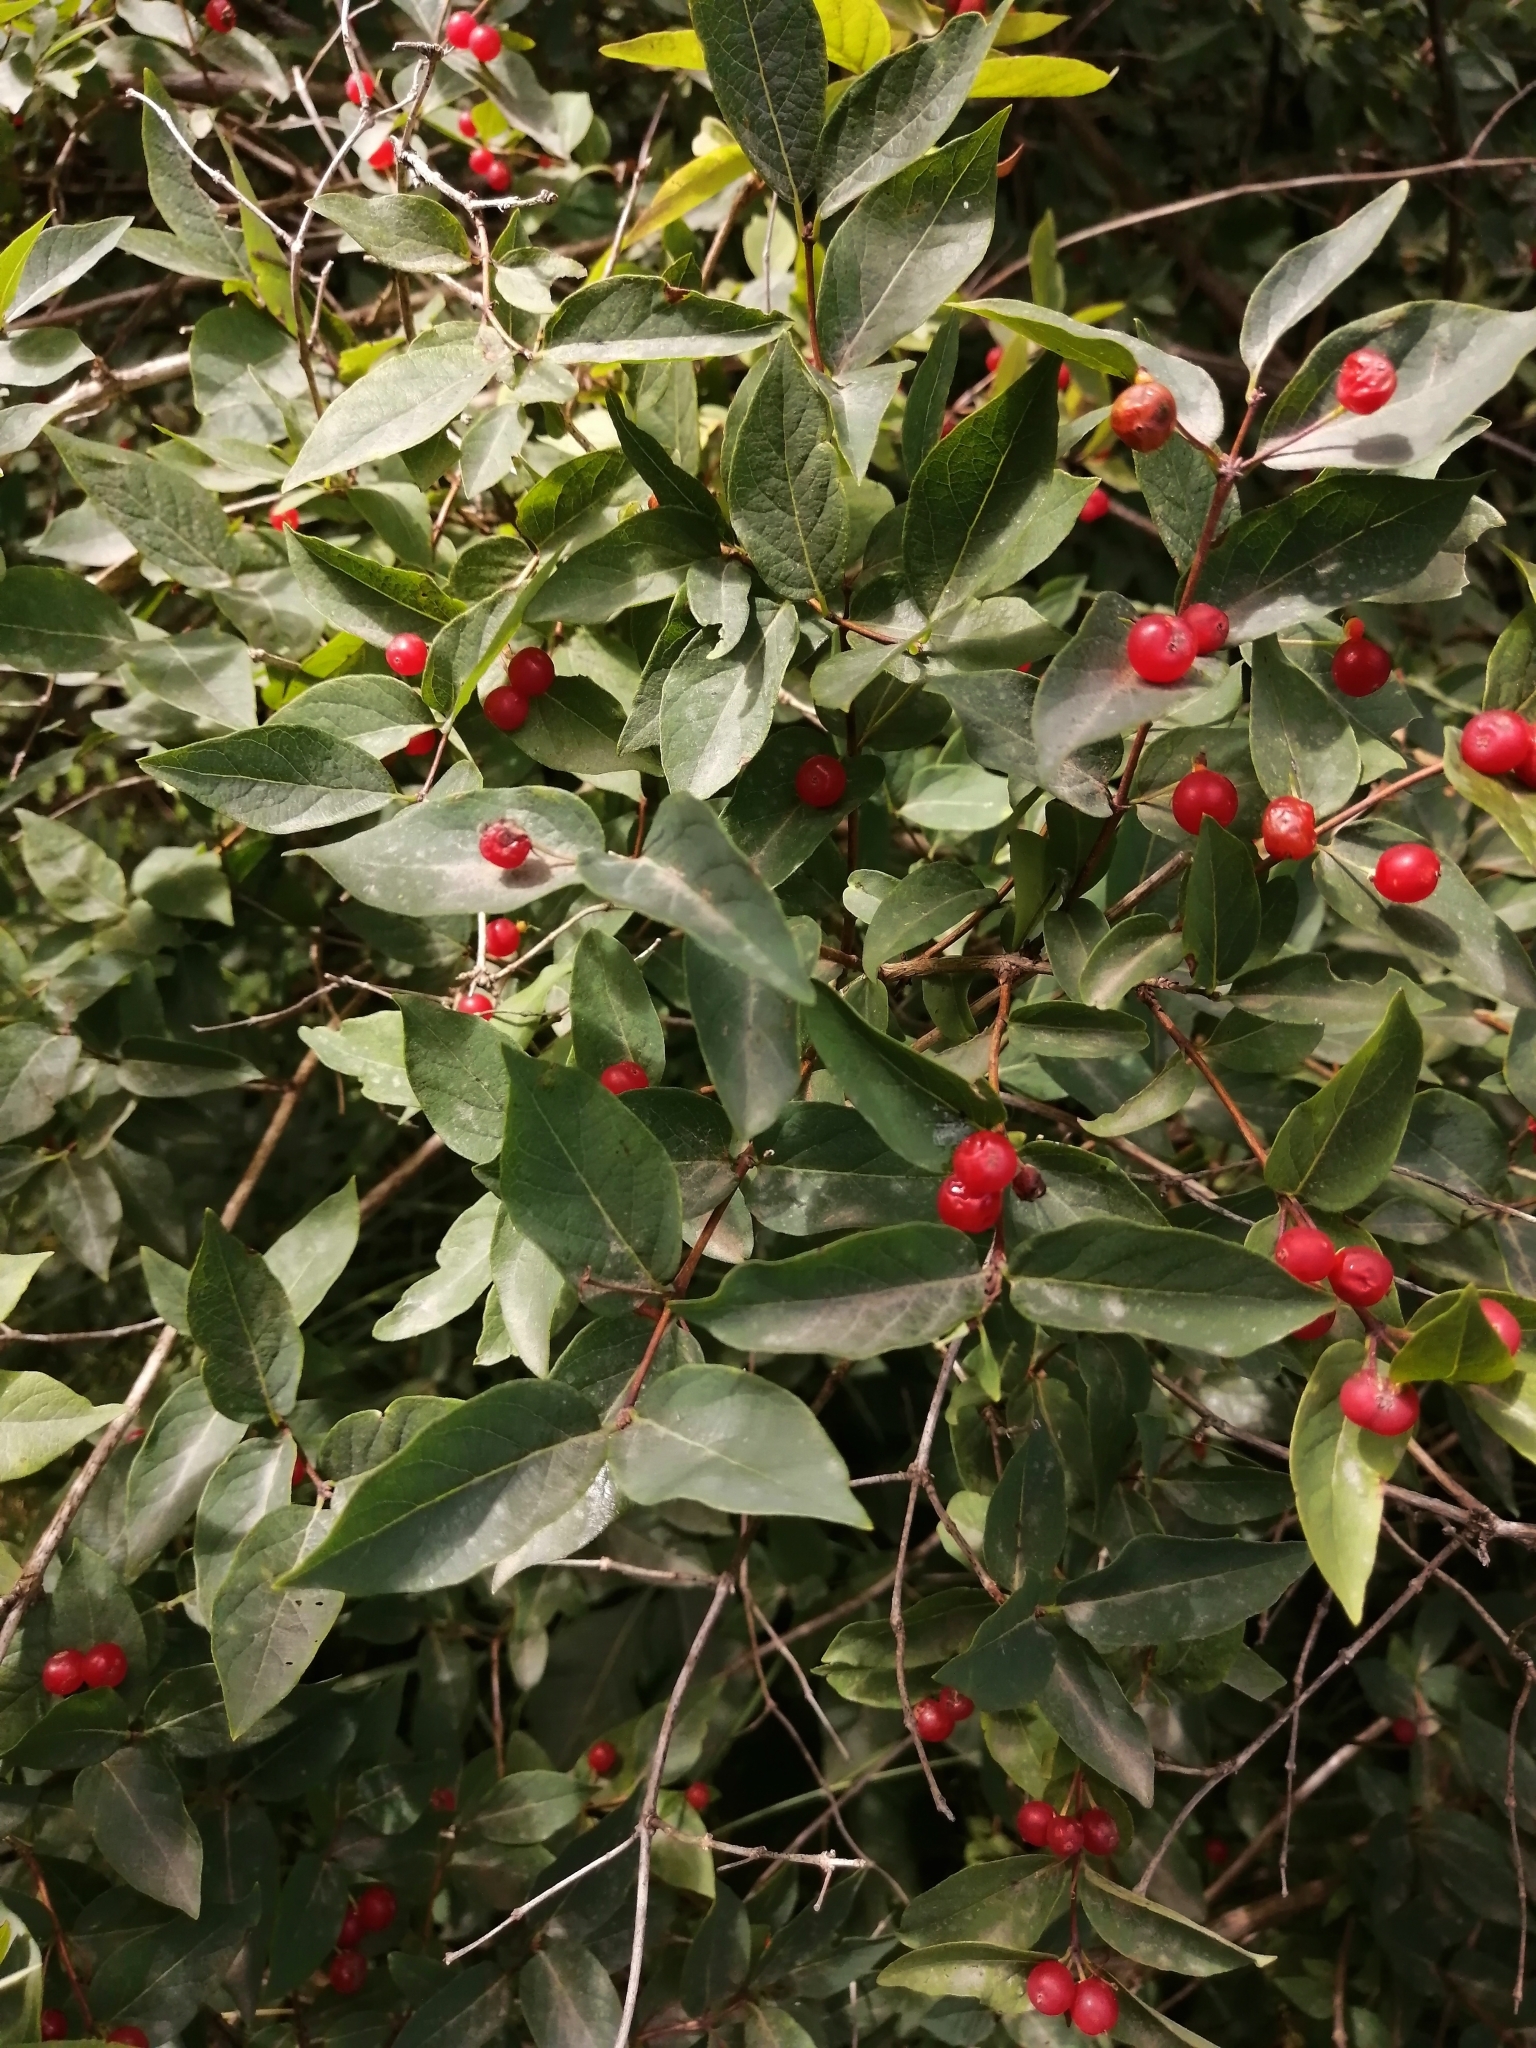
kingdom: Plantae
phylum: Tracheophyta
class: Magnoliopsida
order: Dipsacales
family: Caprifoliaceae
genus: Lonicera
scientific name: Lonicera tatarica
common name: Tatarian honeysuckle
